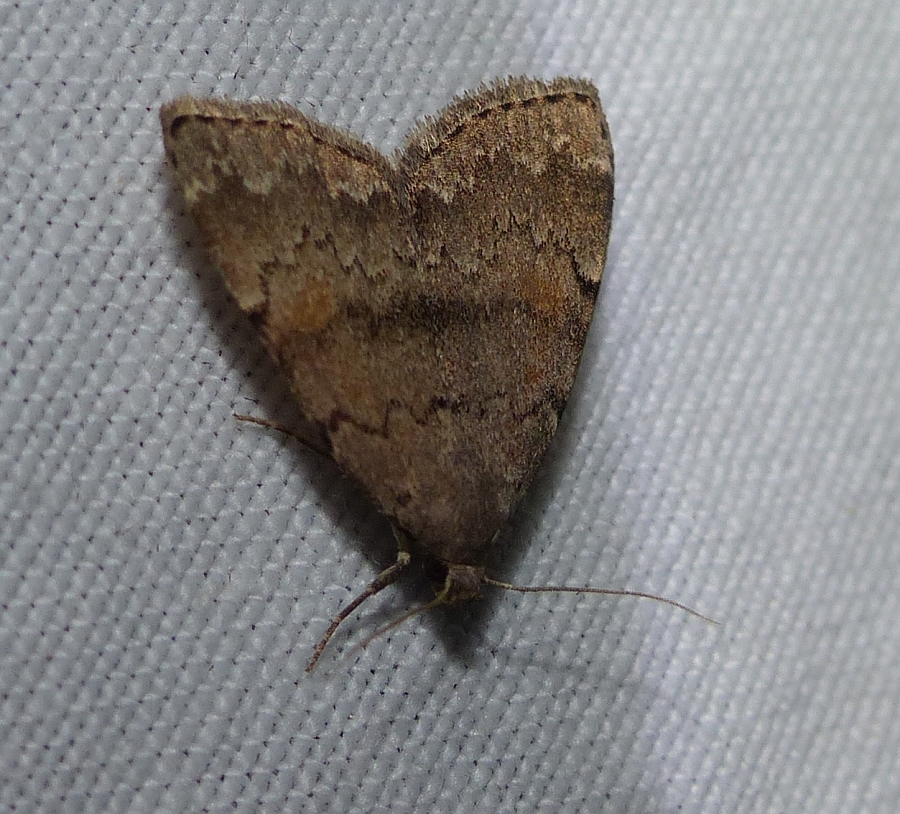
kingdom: Animalia
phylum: Arthropoda
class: Insecta
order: Lepidoptera
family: Erebidae
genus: Idia
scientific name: Idia aemula
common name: Common idia moth
